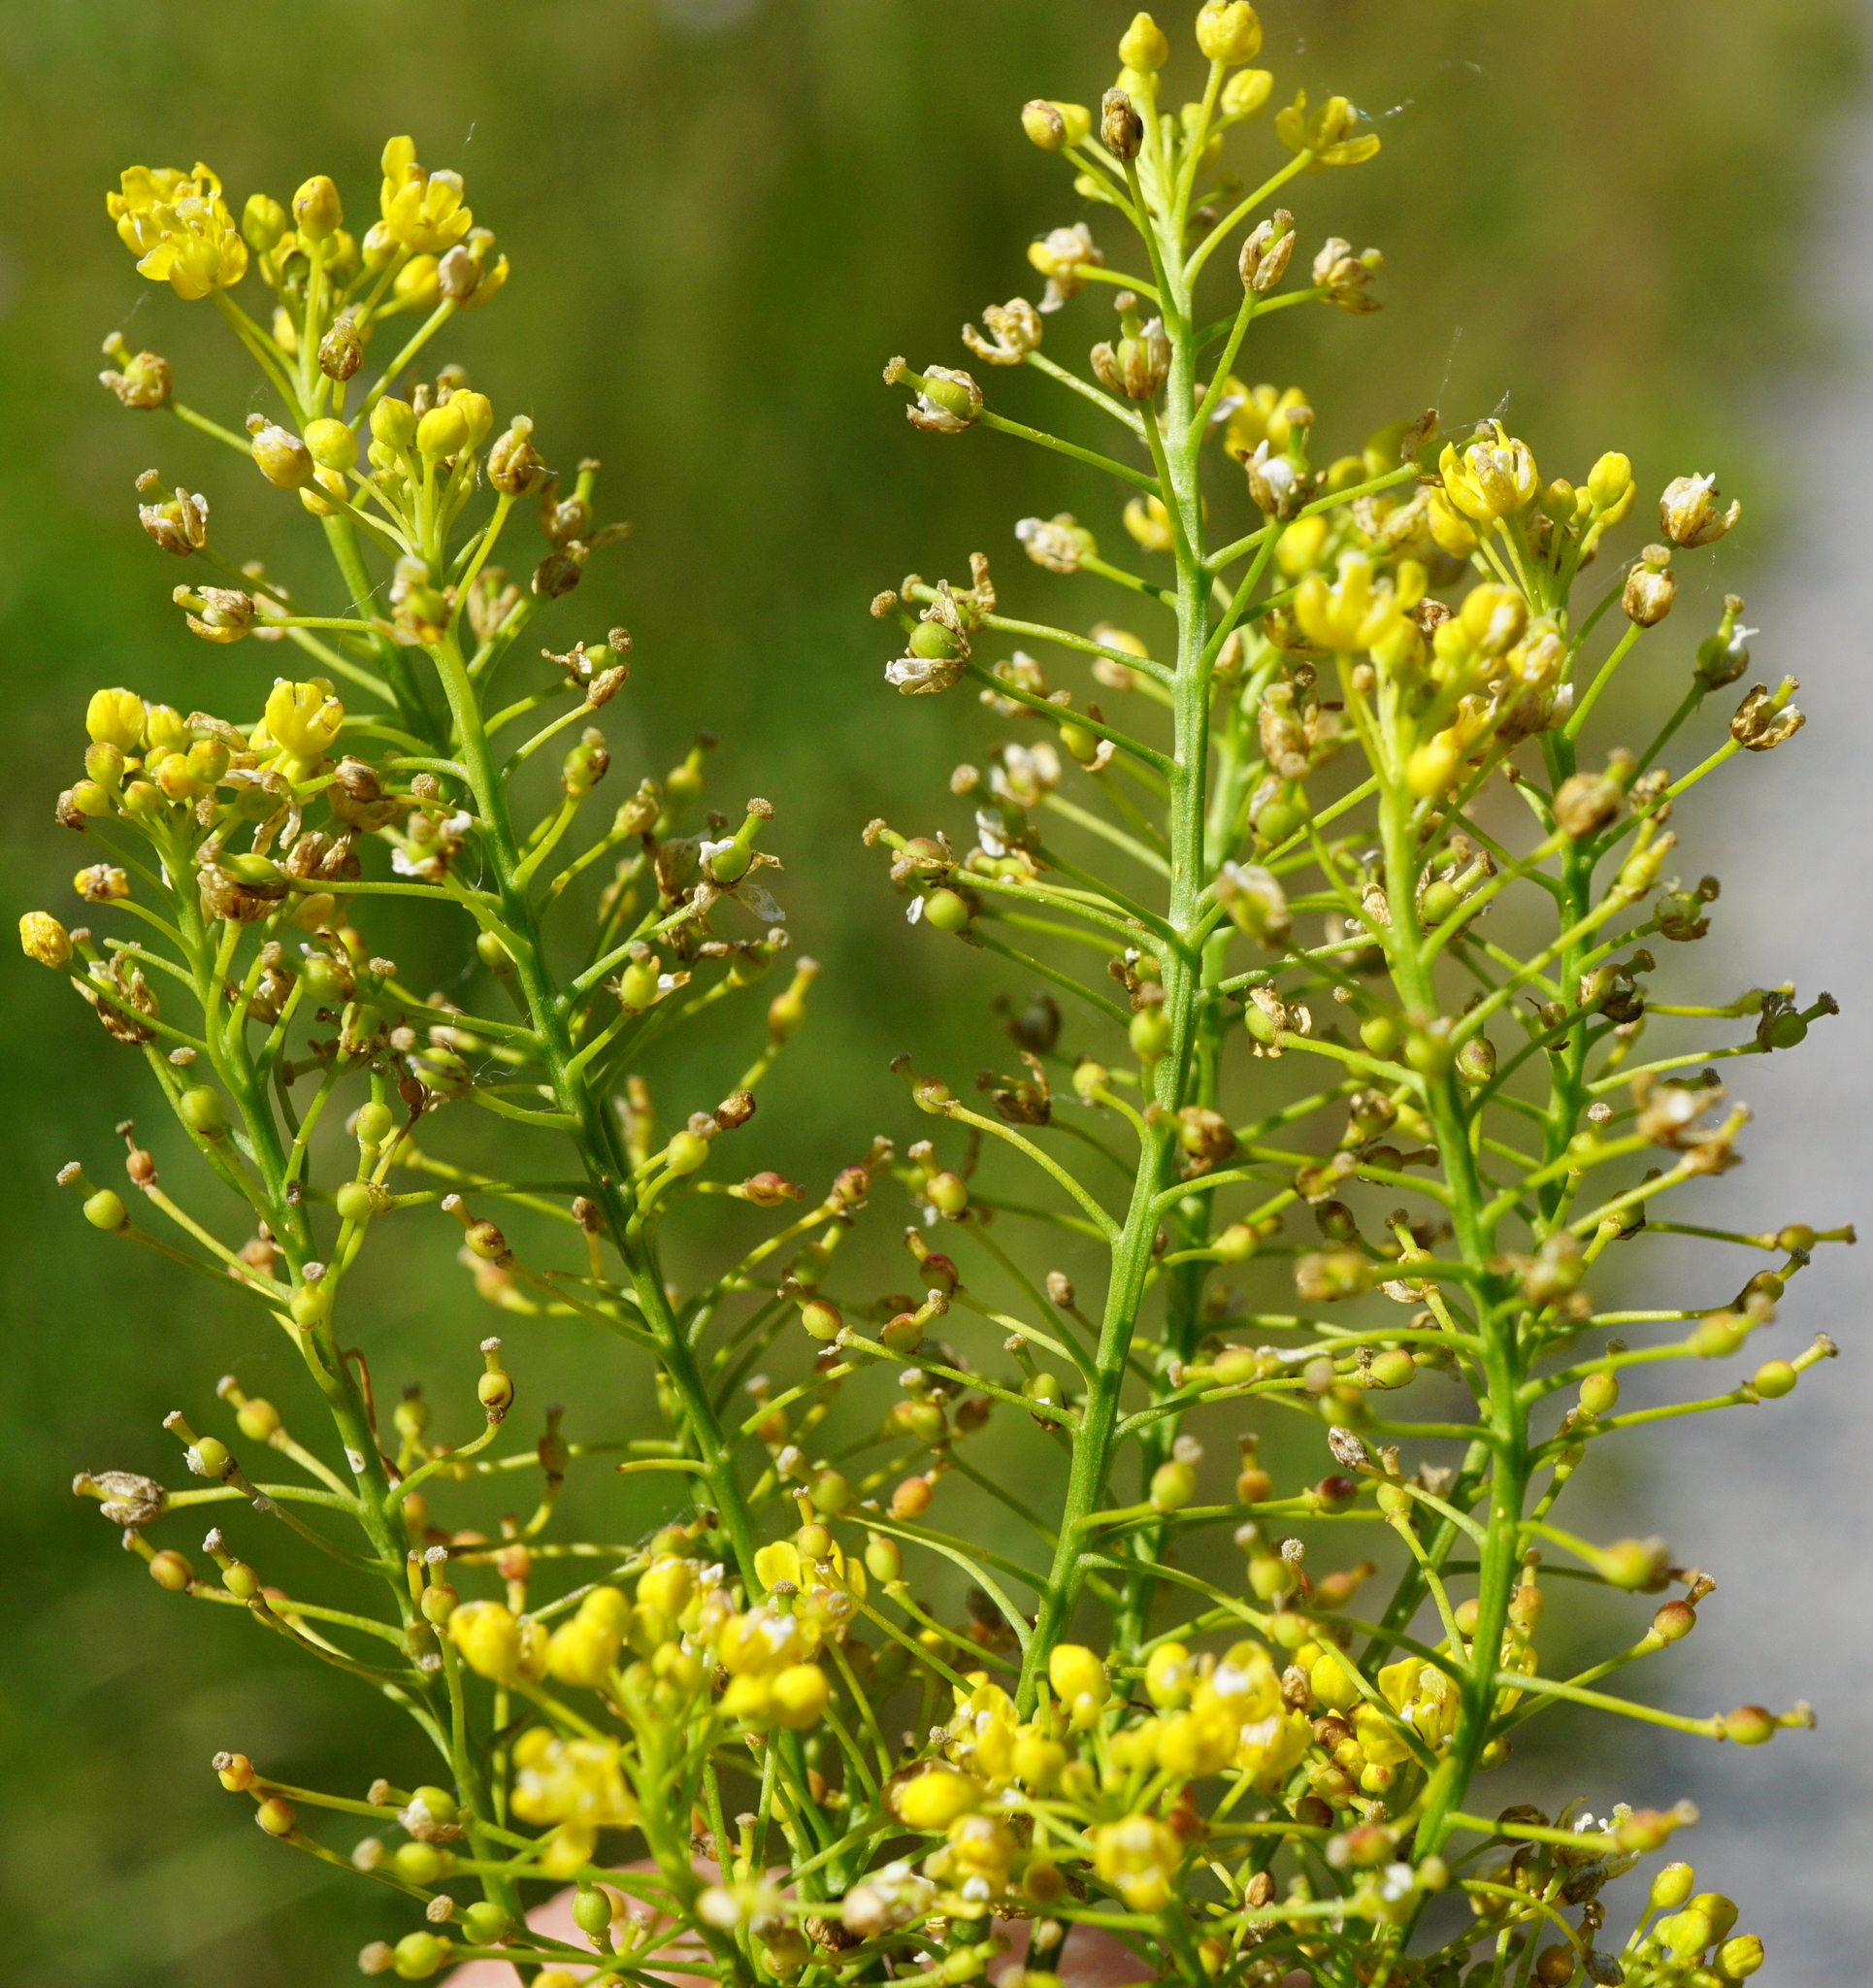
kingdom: Plantae
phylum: Tracheophyta
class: Magnoliopsida
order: Brassicales
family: Brassicaceae
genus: Rorippa
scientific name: Rorippa austriaca
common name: Austrian yellow-cress
